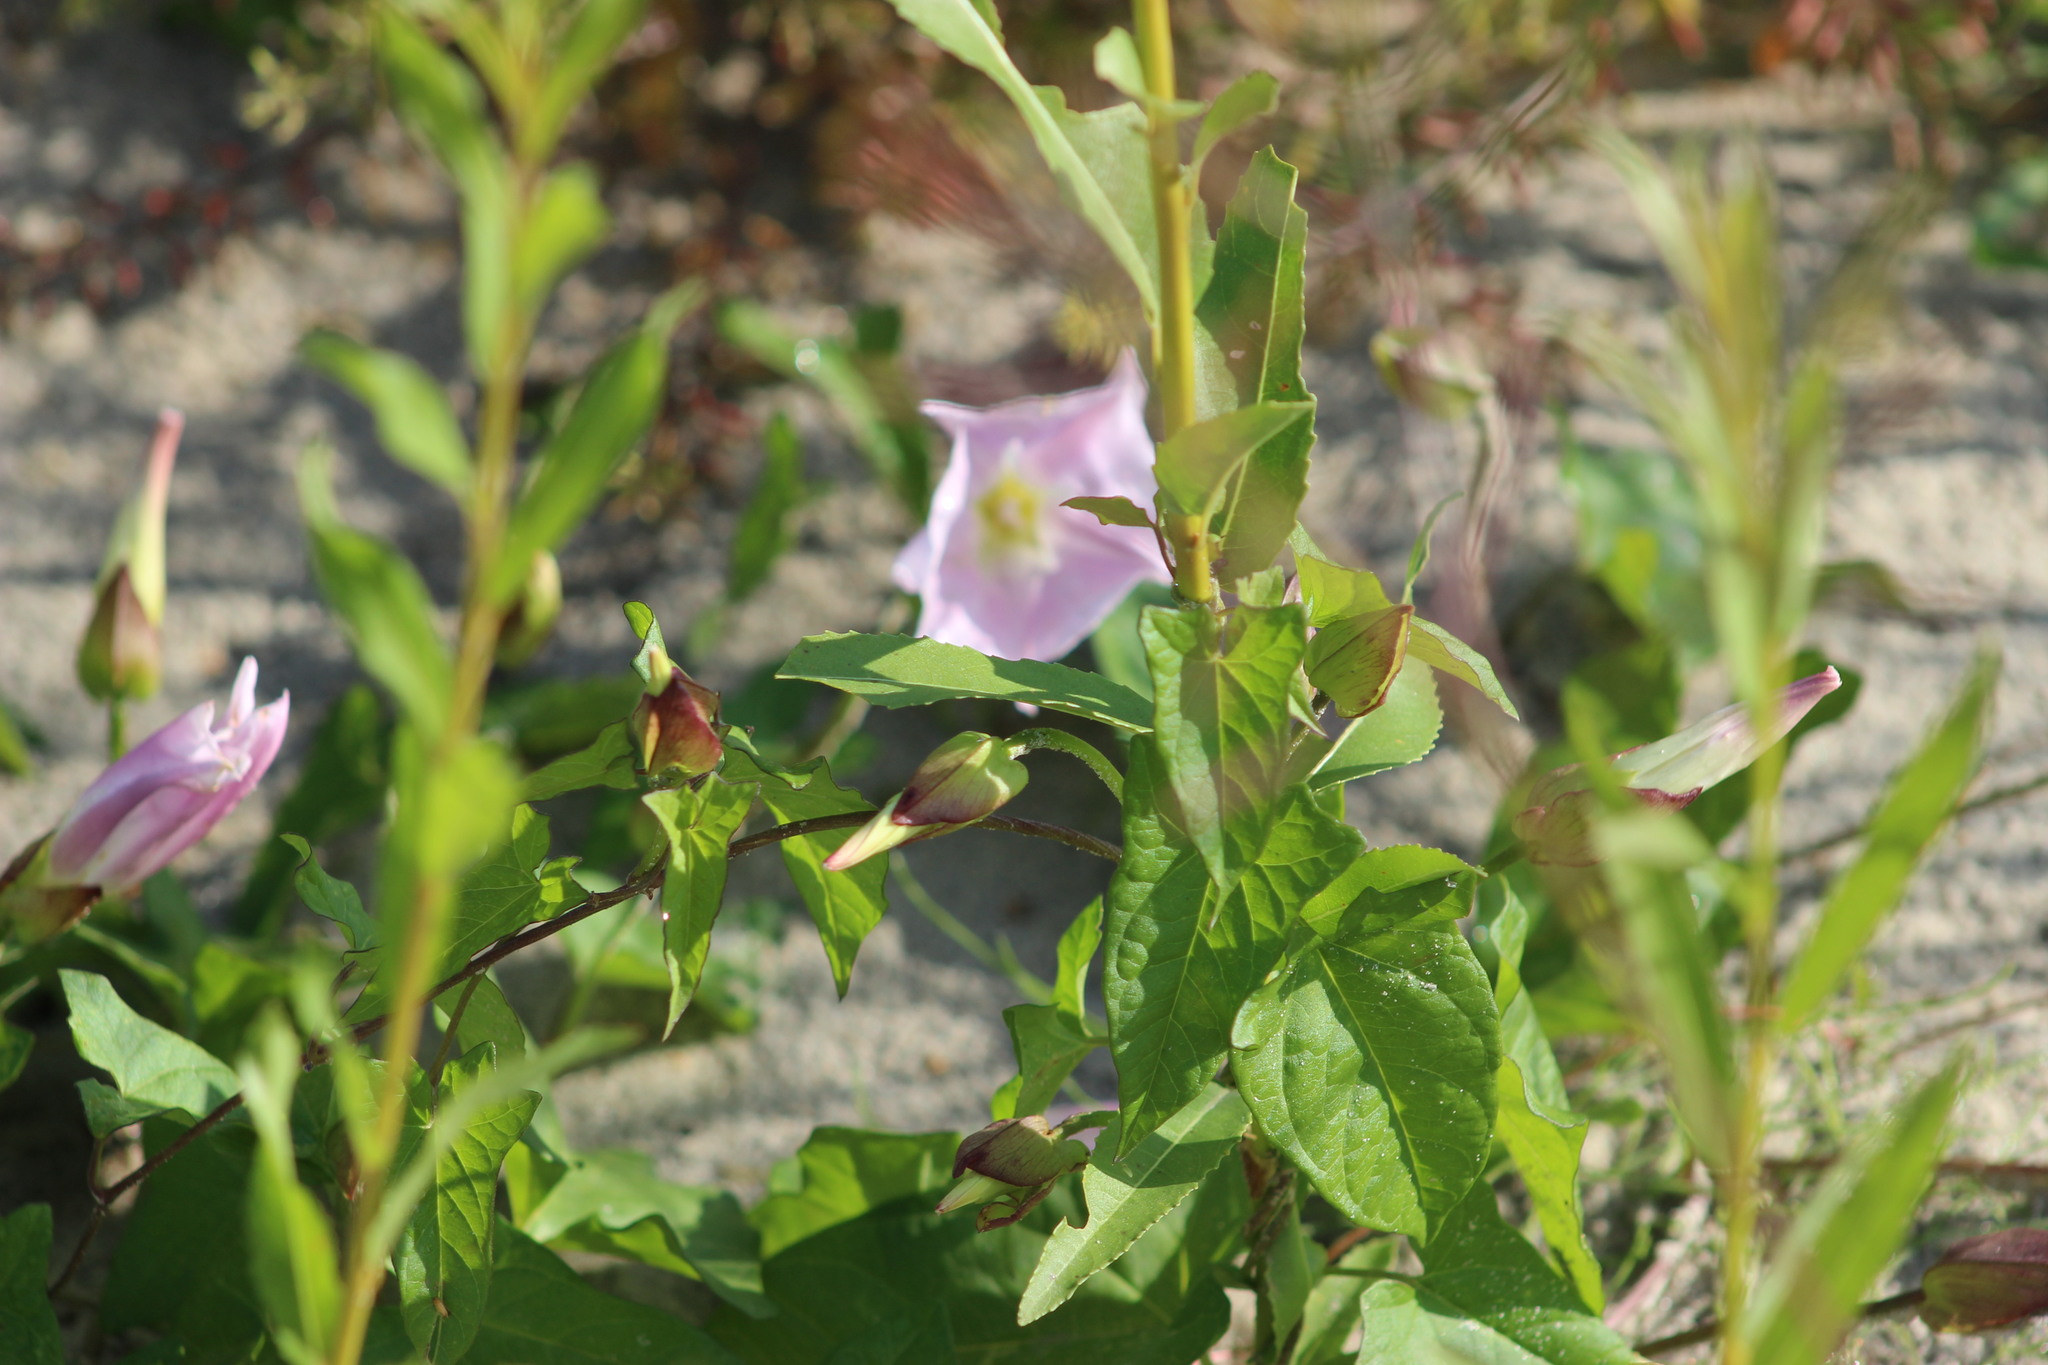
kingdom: Plantae
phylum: Tracheophyta
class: Magnoliopsida
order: Solanales
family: Convolvulaceae
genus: Calystegia
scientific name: Calystegia sepium
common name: Hedge bindweed
